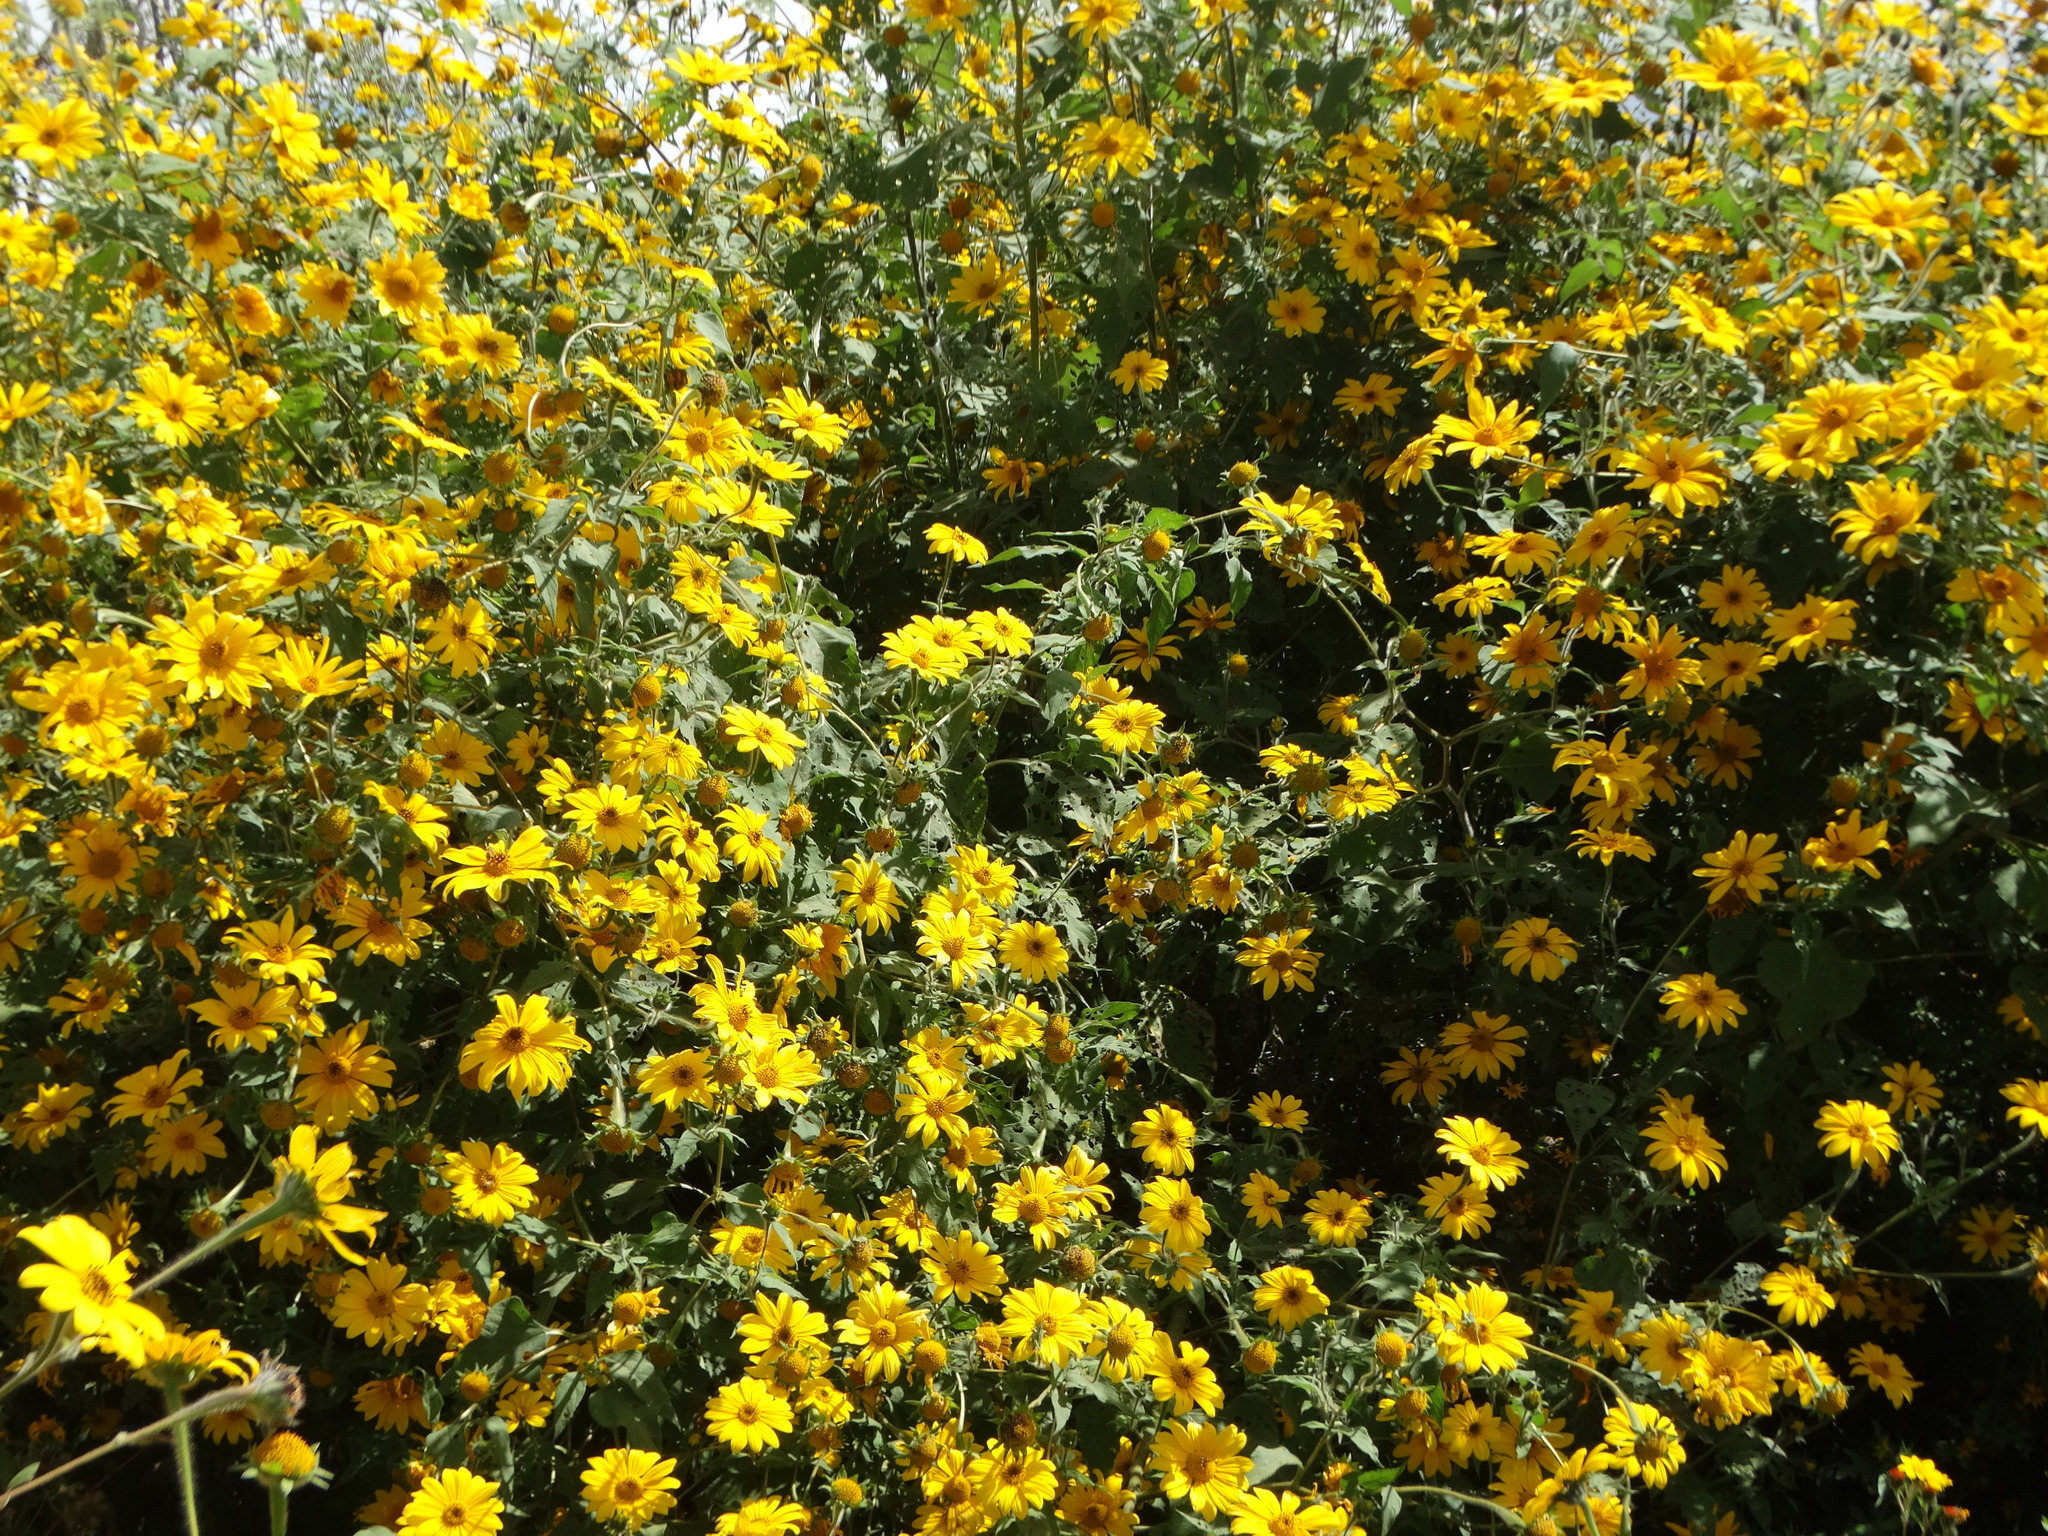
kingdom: Plantae
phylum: Tracheophyta
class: Magnoliopsida
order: Asterales
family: Asteraceae
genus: Tithonia
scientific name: Tithonia tubaeformis
